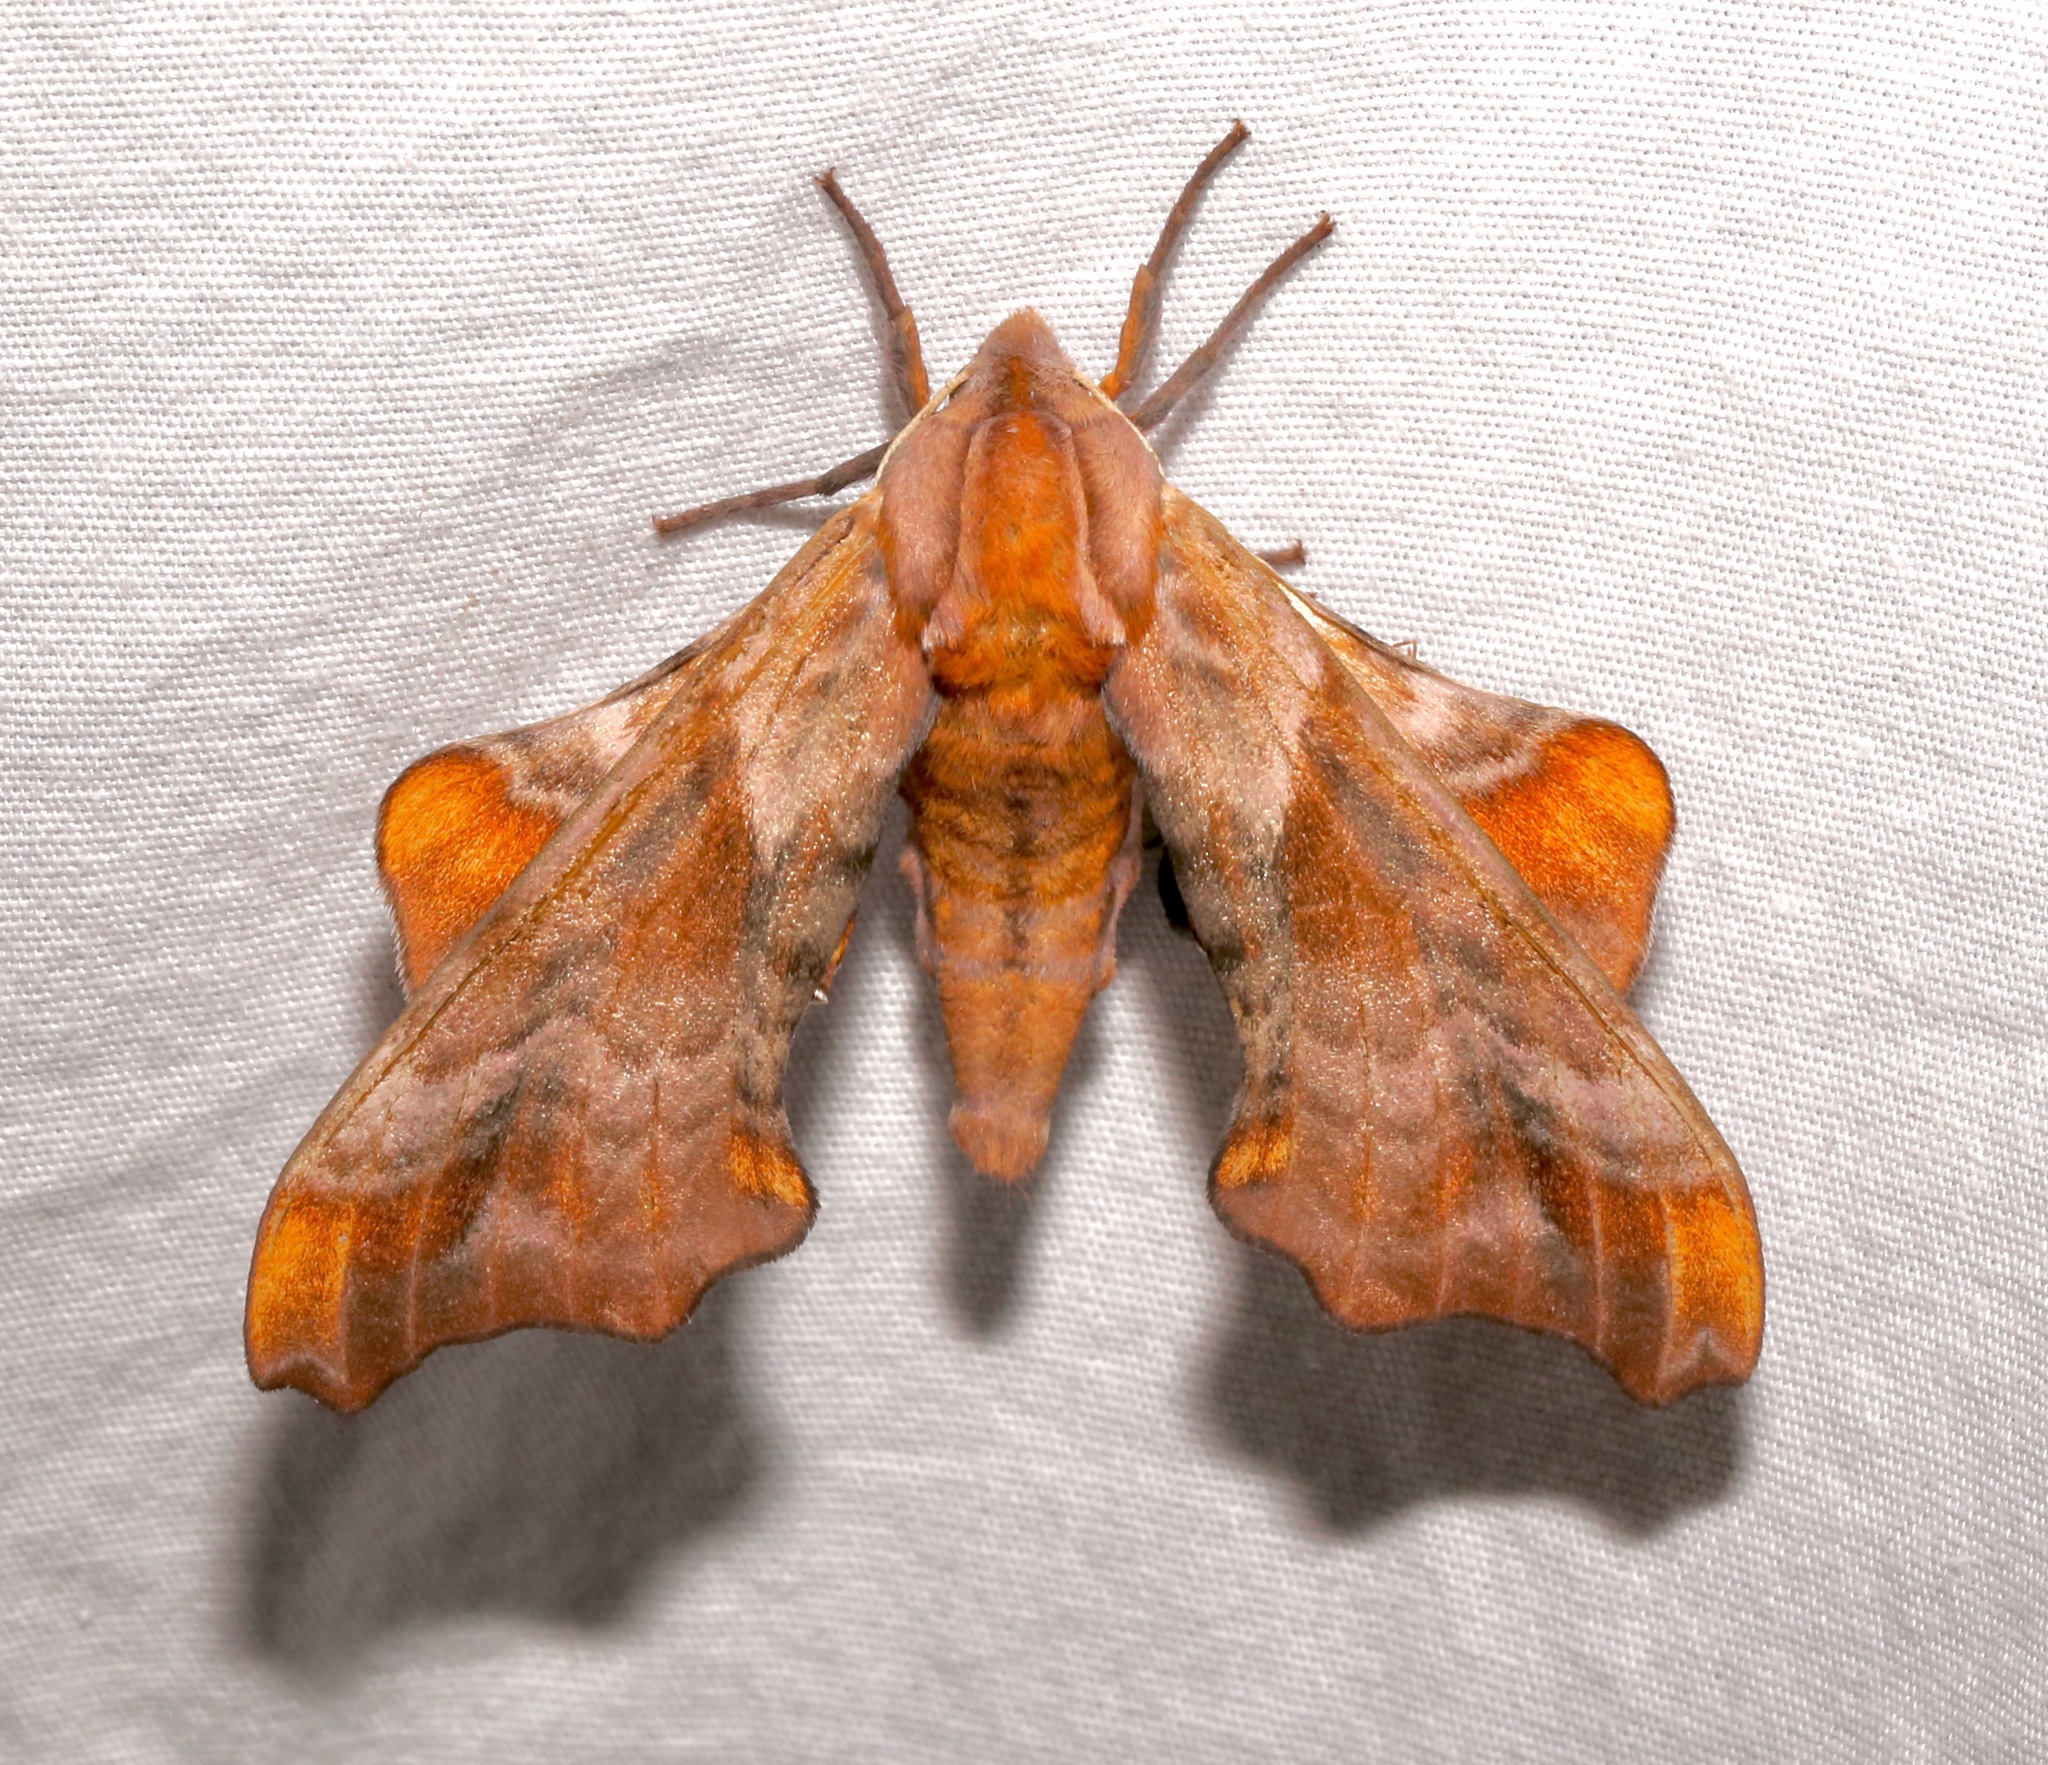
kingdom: Animalia
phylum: Arthropoda
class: Insecta
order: Lepidoptera
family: Sphingidae
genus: Paonias
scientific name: Paonias myops
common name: Small-eyed sphinx
